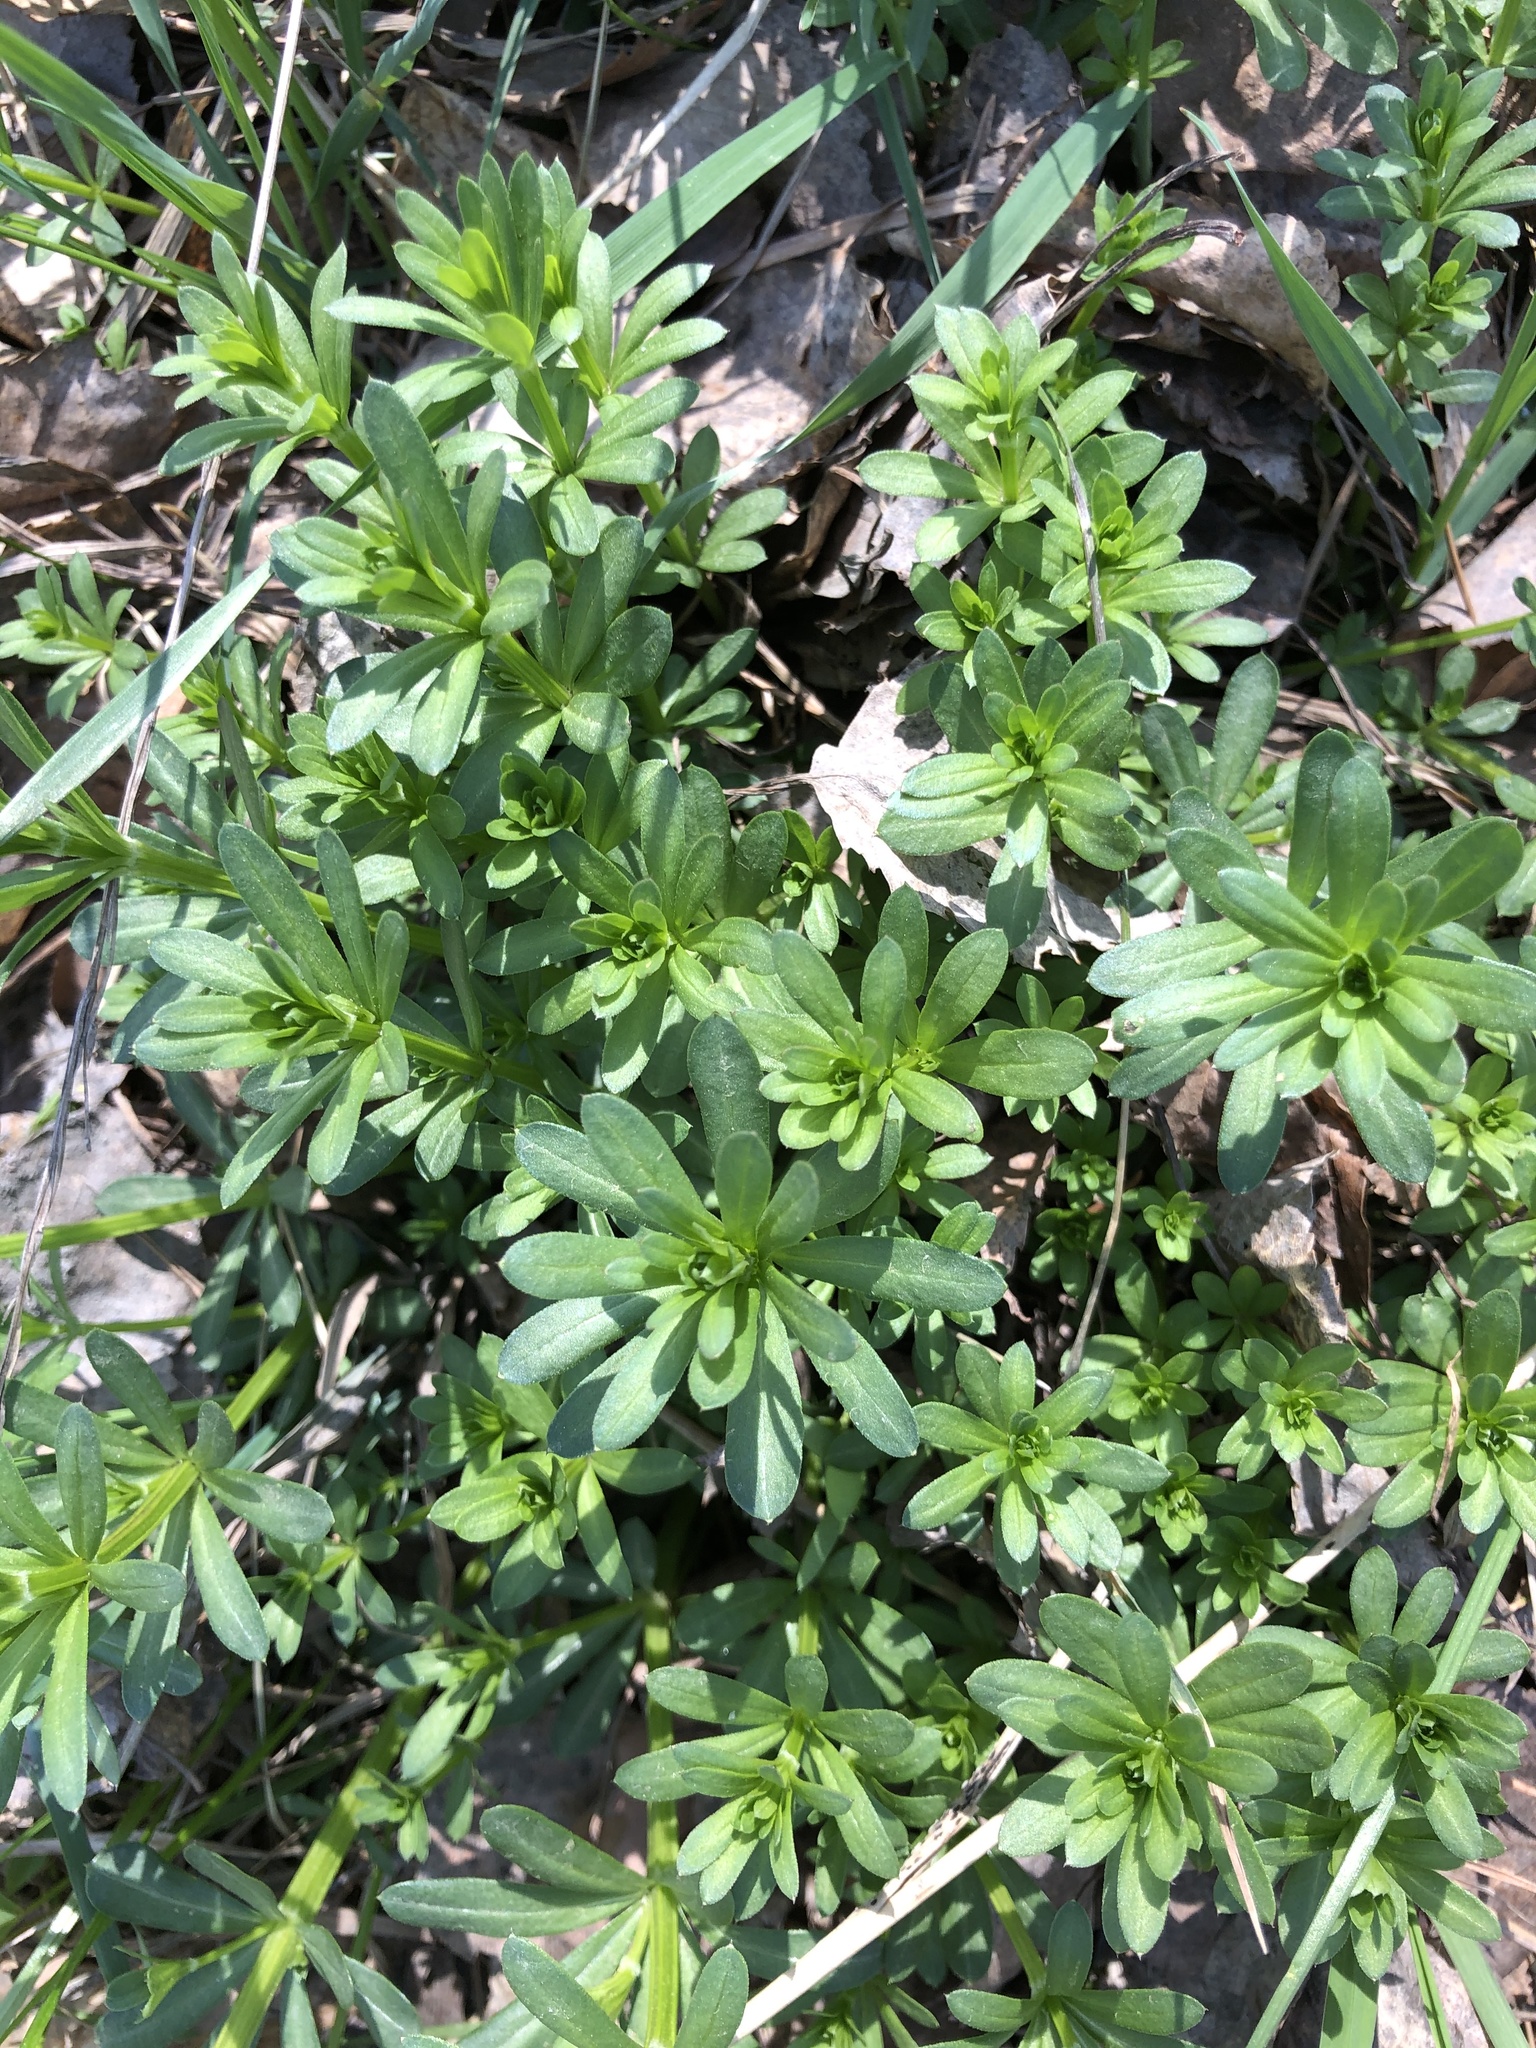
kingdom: Plantae
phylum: Tracheophyta
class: Magnoliopsida
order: Gentianales
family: Rubiaceae
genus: Galium
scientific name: Galium mollugo
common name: Hedge bedstraw
